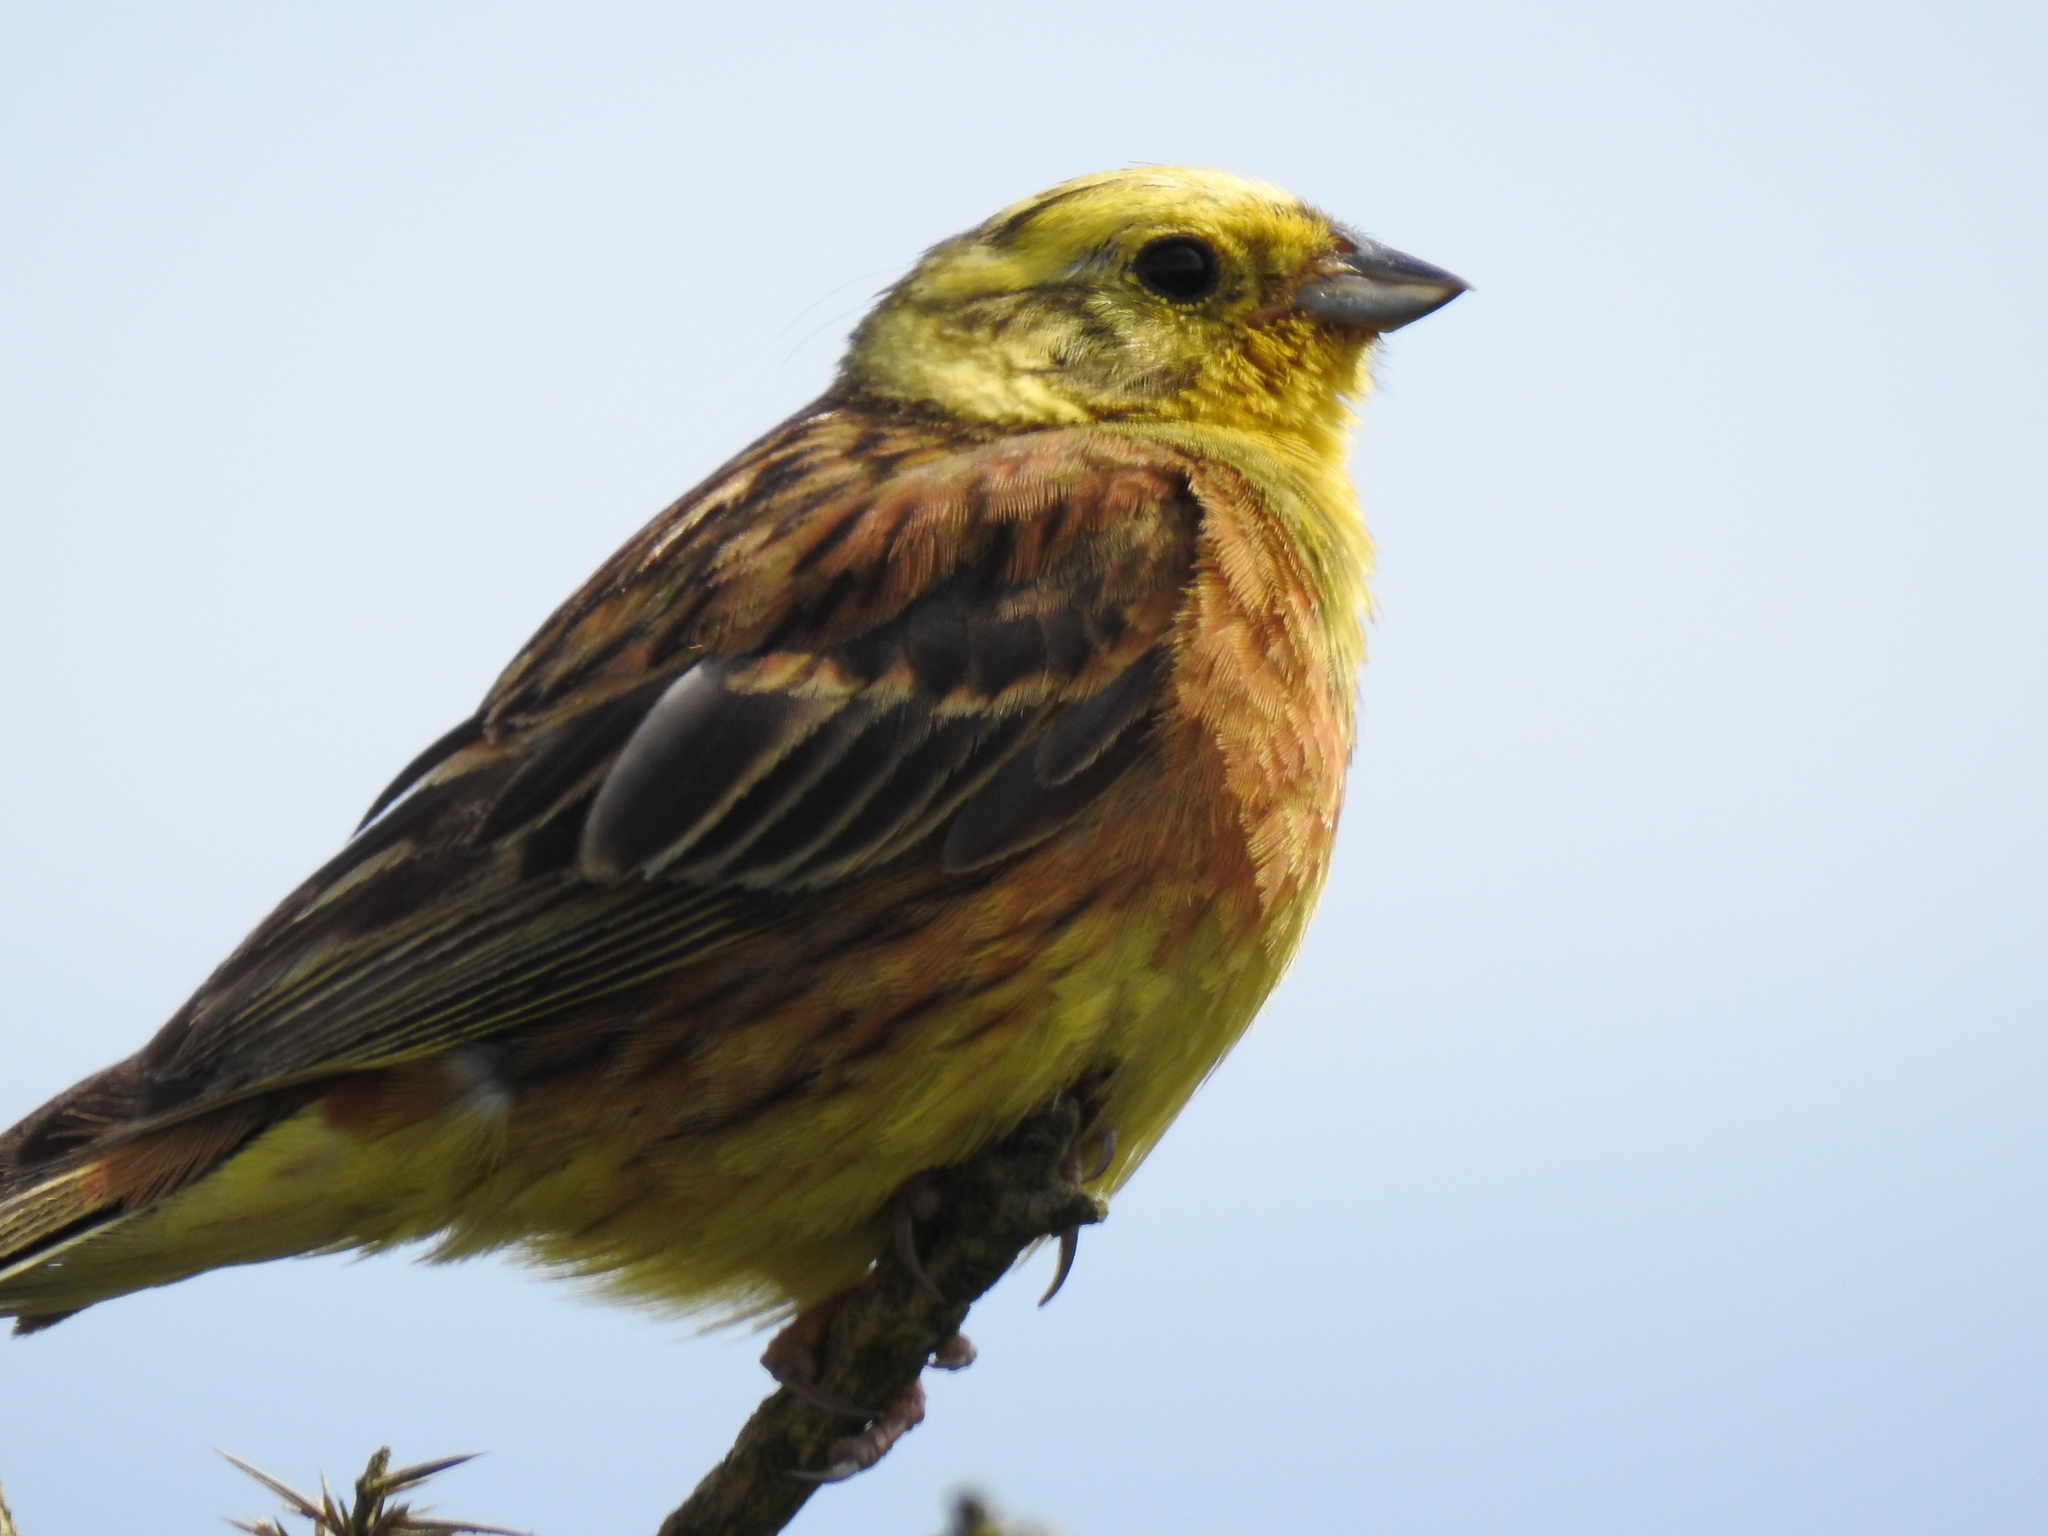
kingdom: Animalia
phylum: Chordata
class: Aves
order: Passeriformes
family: Emberizidae
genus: Emberiza
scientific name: Emberiza citrinella
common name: Yellowhammer
